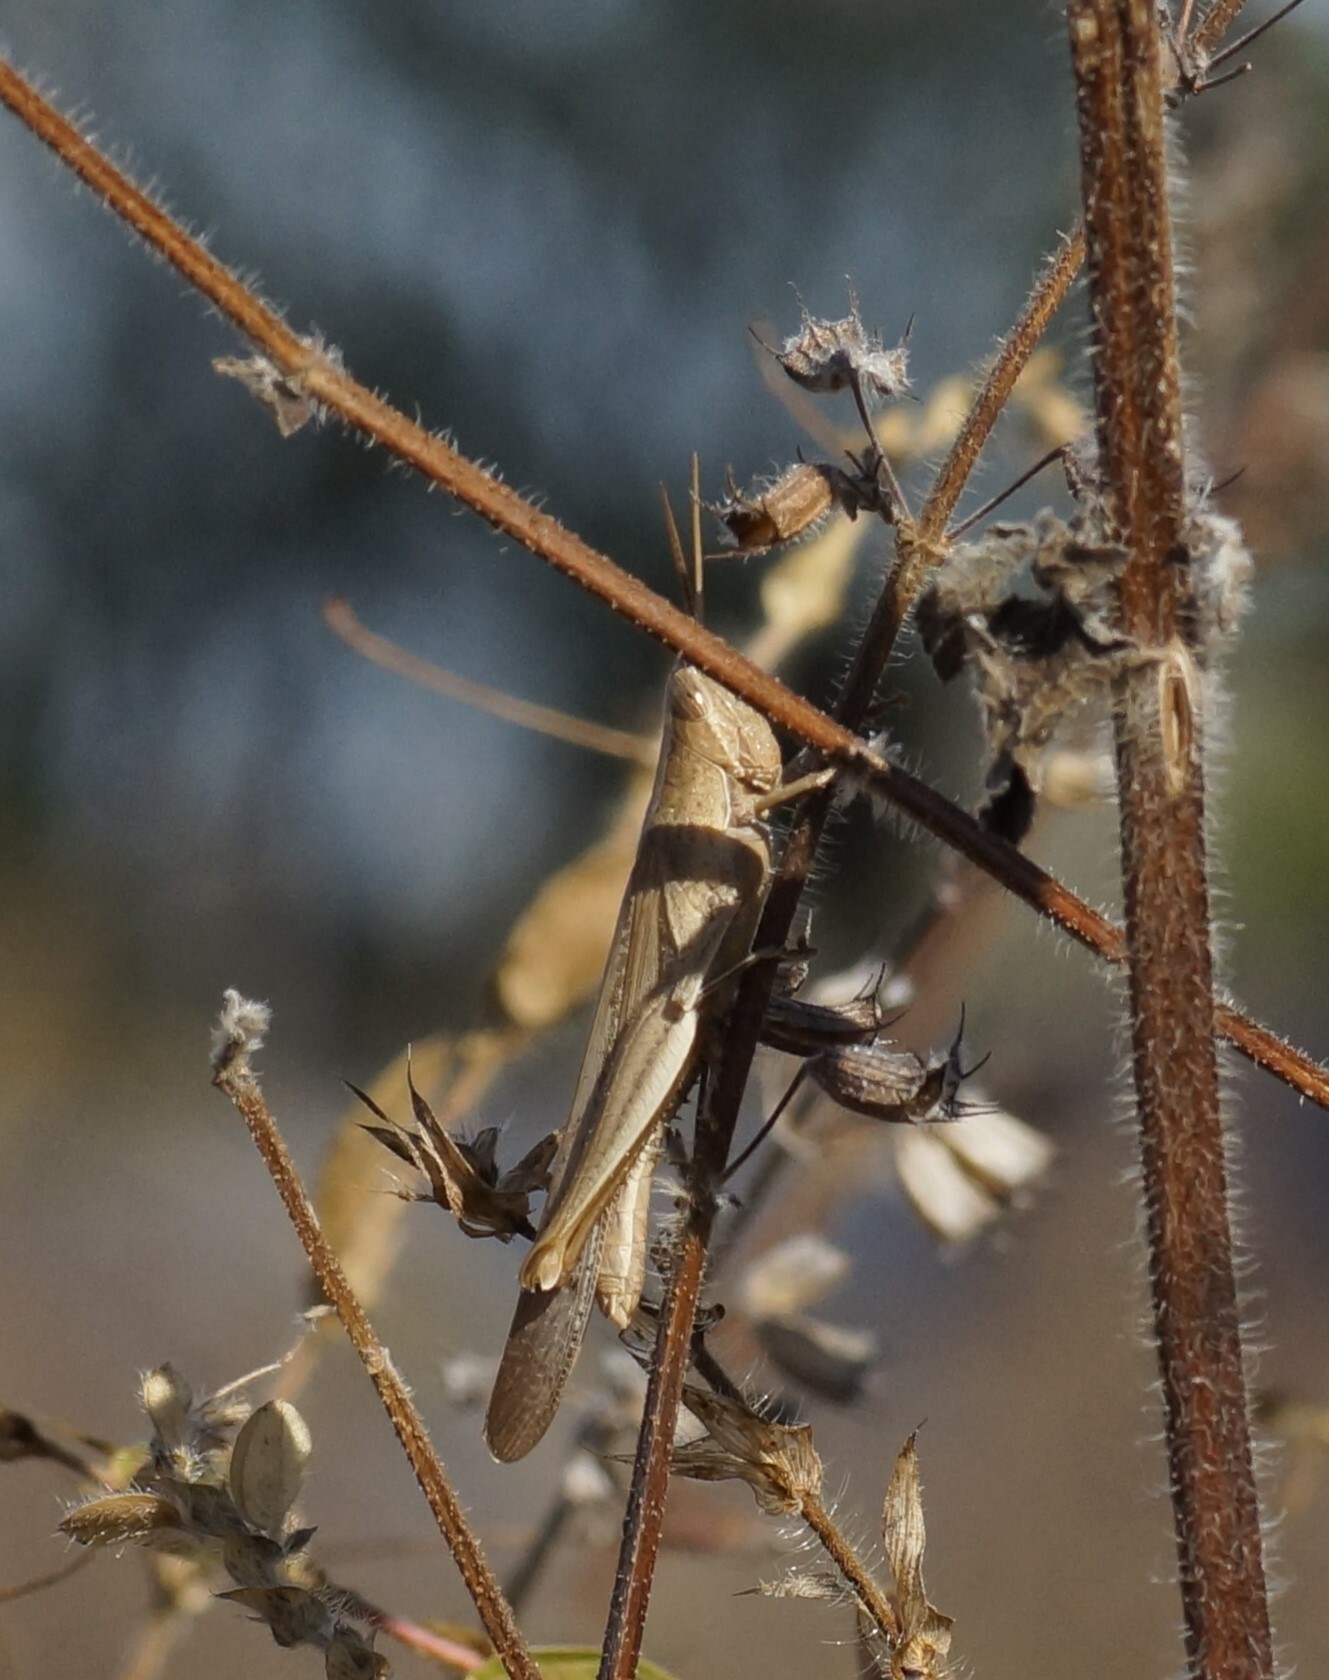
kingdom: Animalia
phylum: Arthropoda
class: Insecta
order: Orthoptera
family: Acrididae
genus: Stenocatantops
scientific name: Stenocatantops vitripennis
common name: Light-brown sharptail
